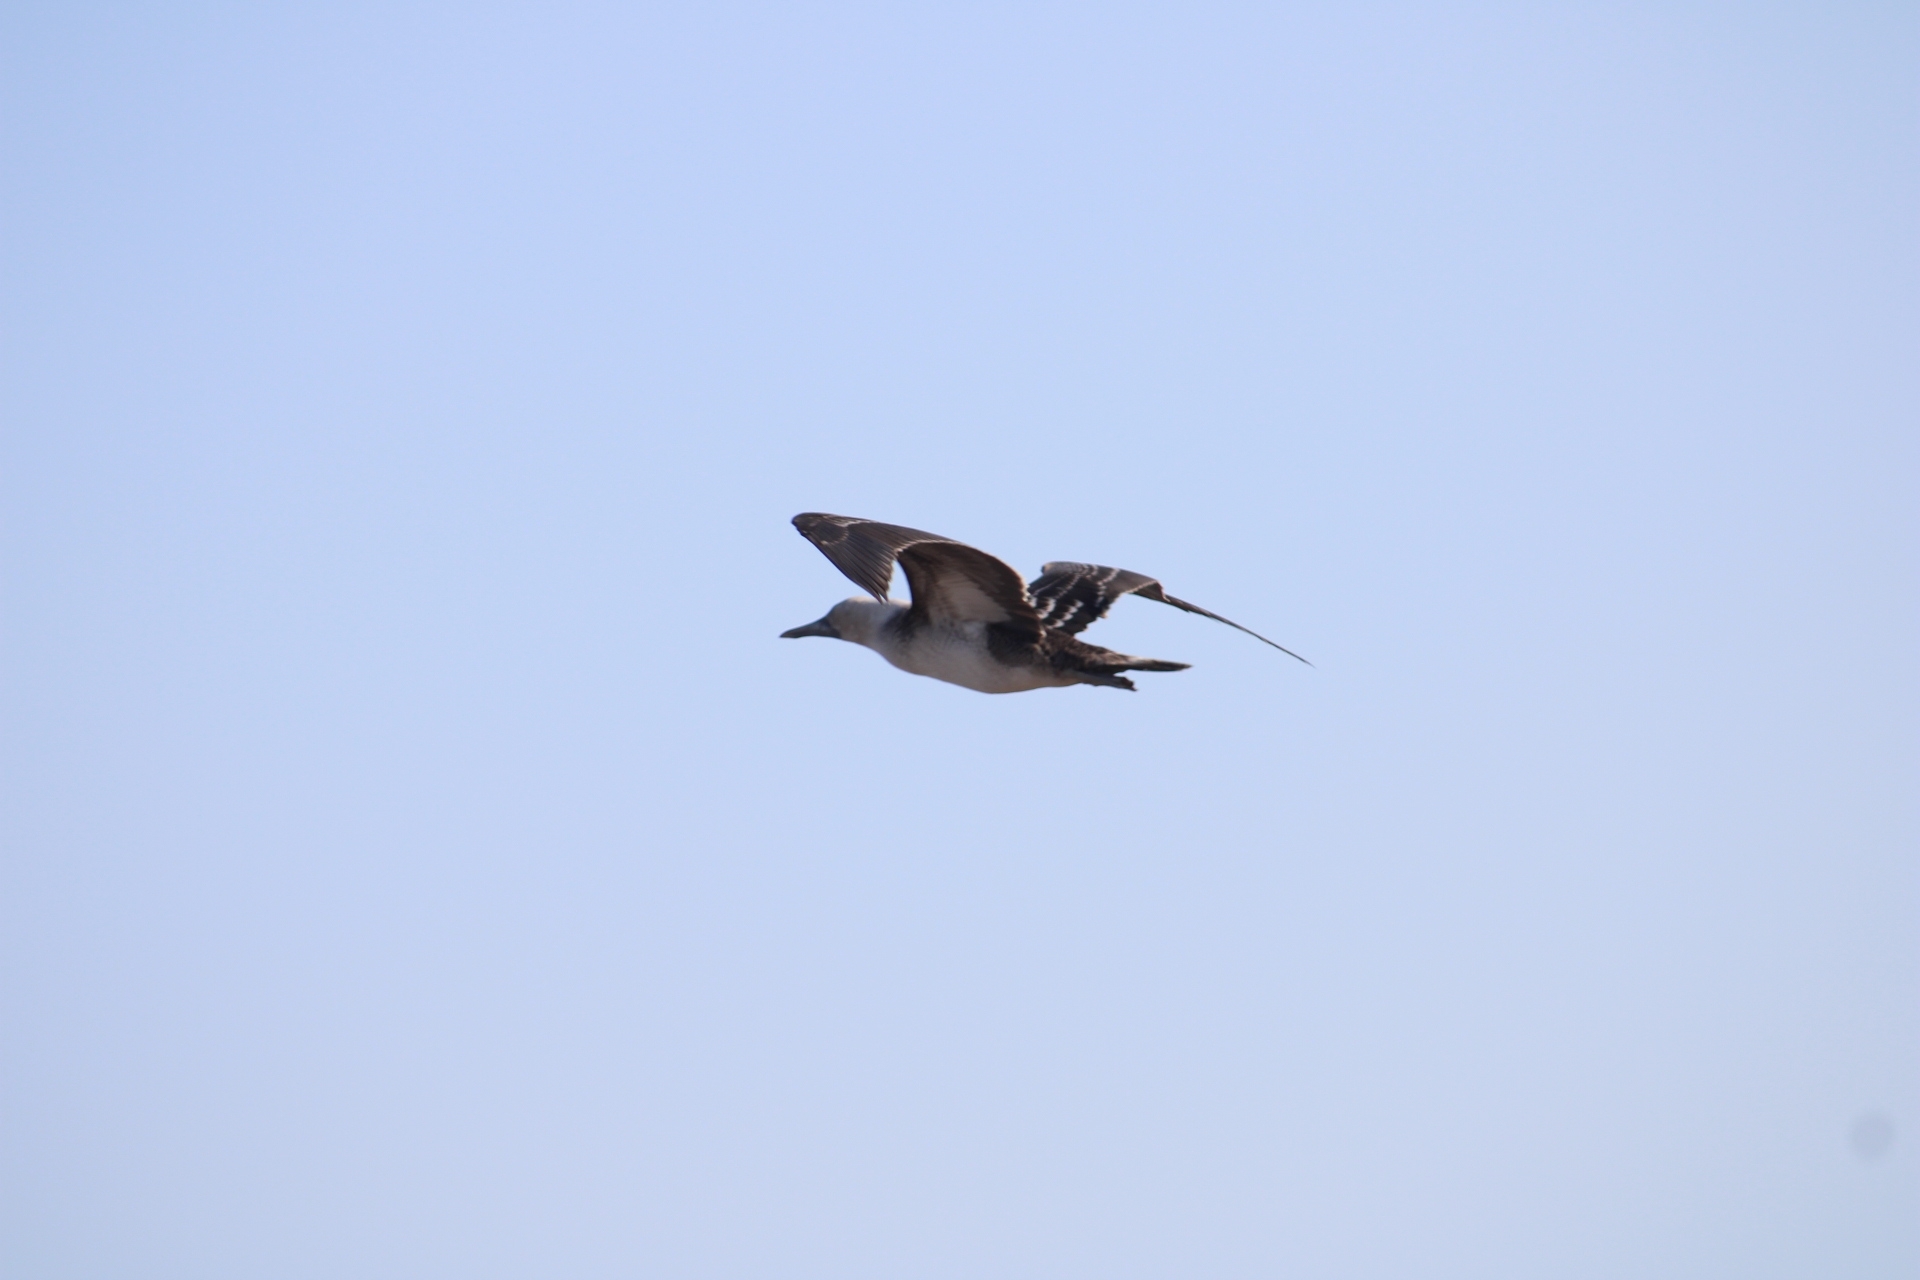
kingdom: Animalia
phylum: Chordata
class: Aves
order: Suliformes
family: Sulidae
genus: Sula
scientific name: Sula variegata
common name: Peruvian booby
